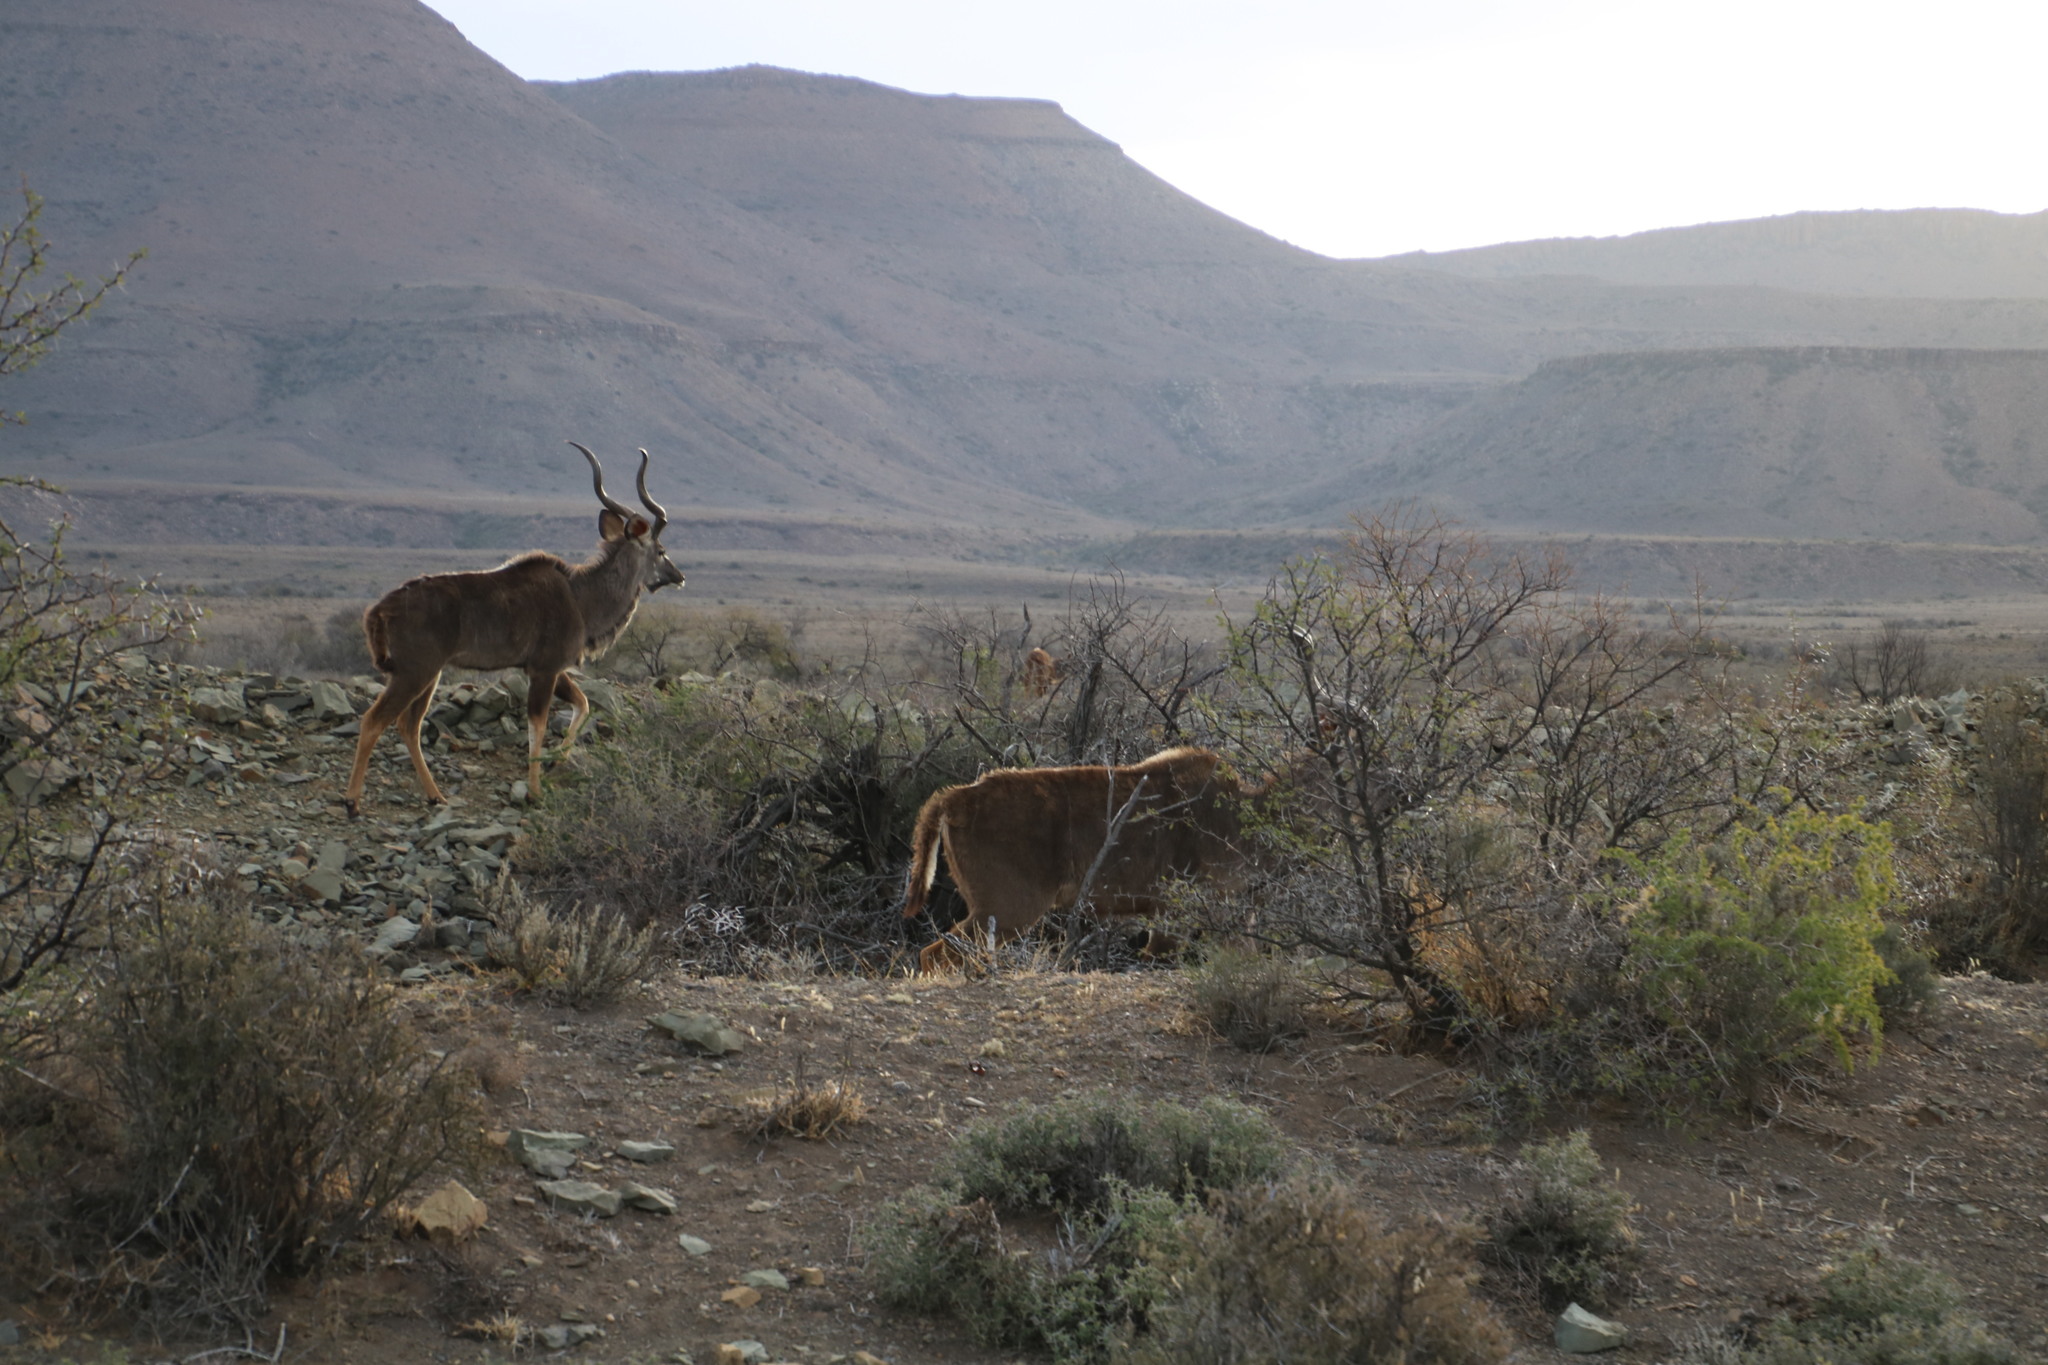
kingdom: Animalia
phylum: Chordata
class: Mammalia
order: Artiodactyla
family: Bovidae
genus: Tragelaphus
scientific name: Tragelaphus strepsiceros
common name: Greater kudu
